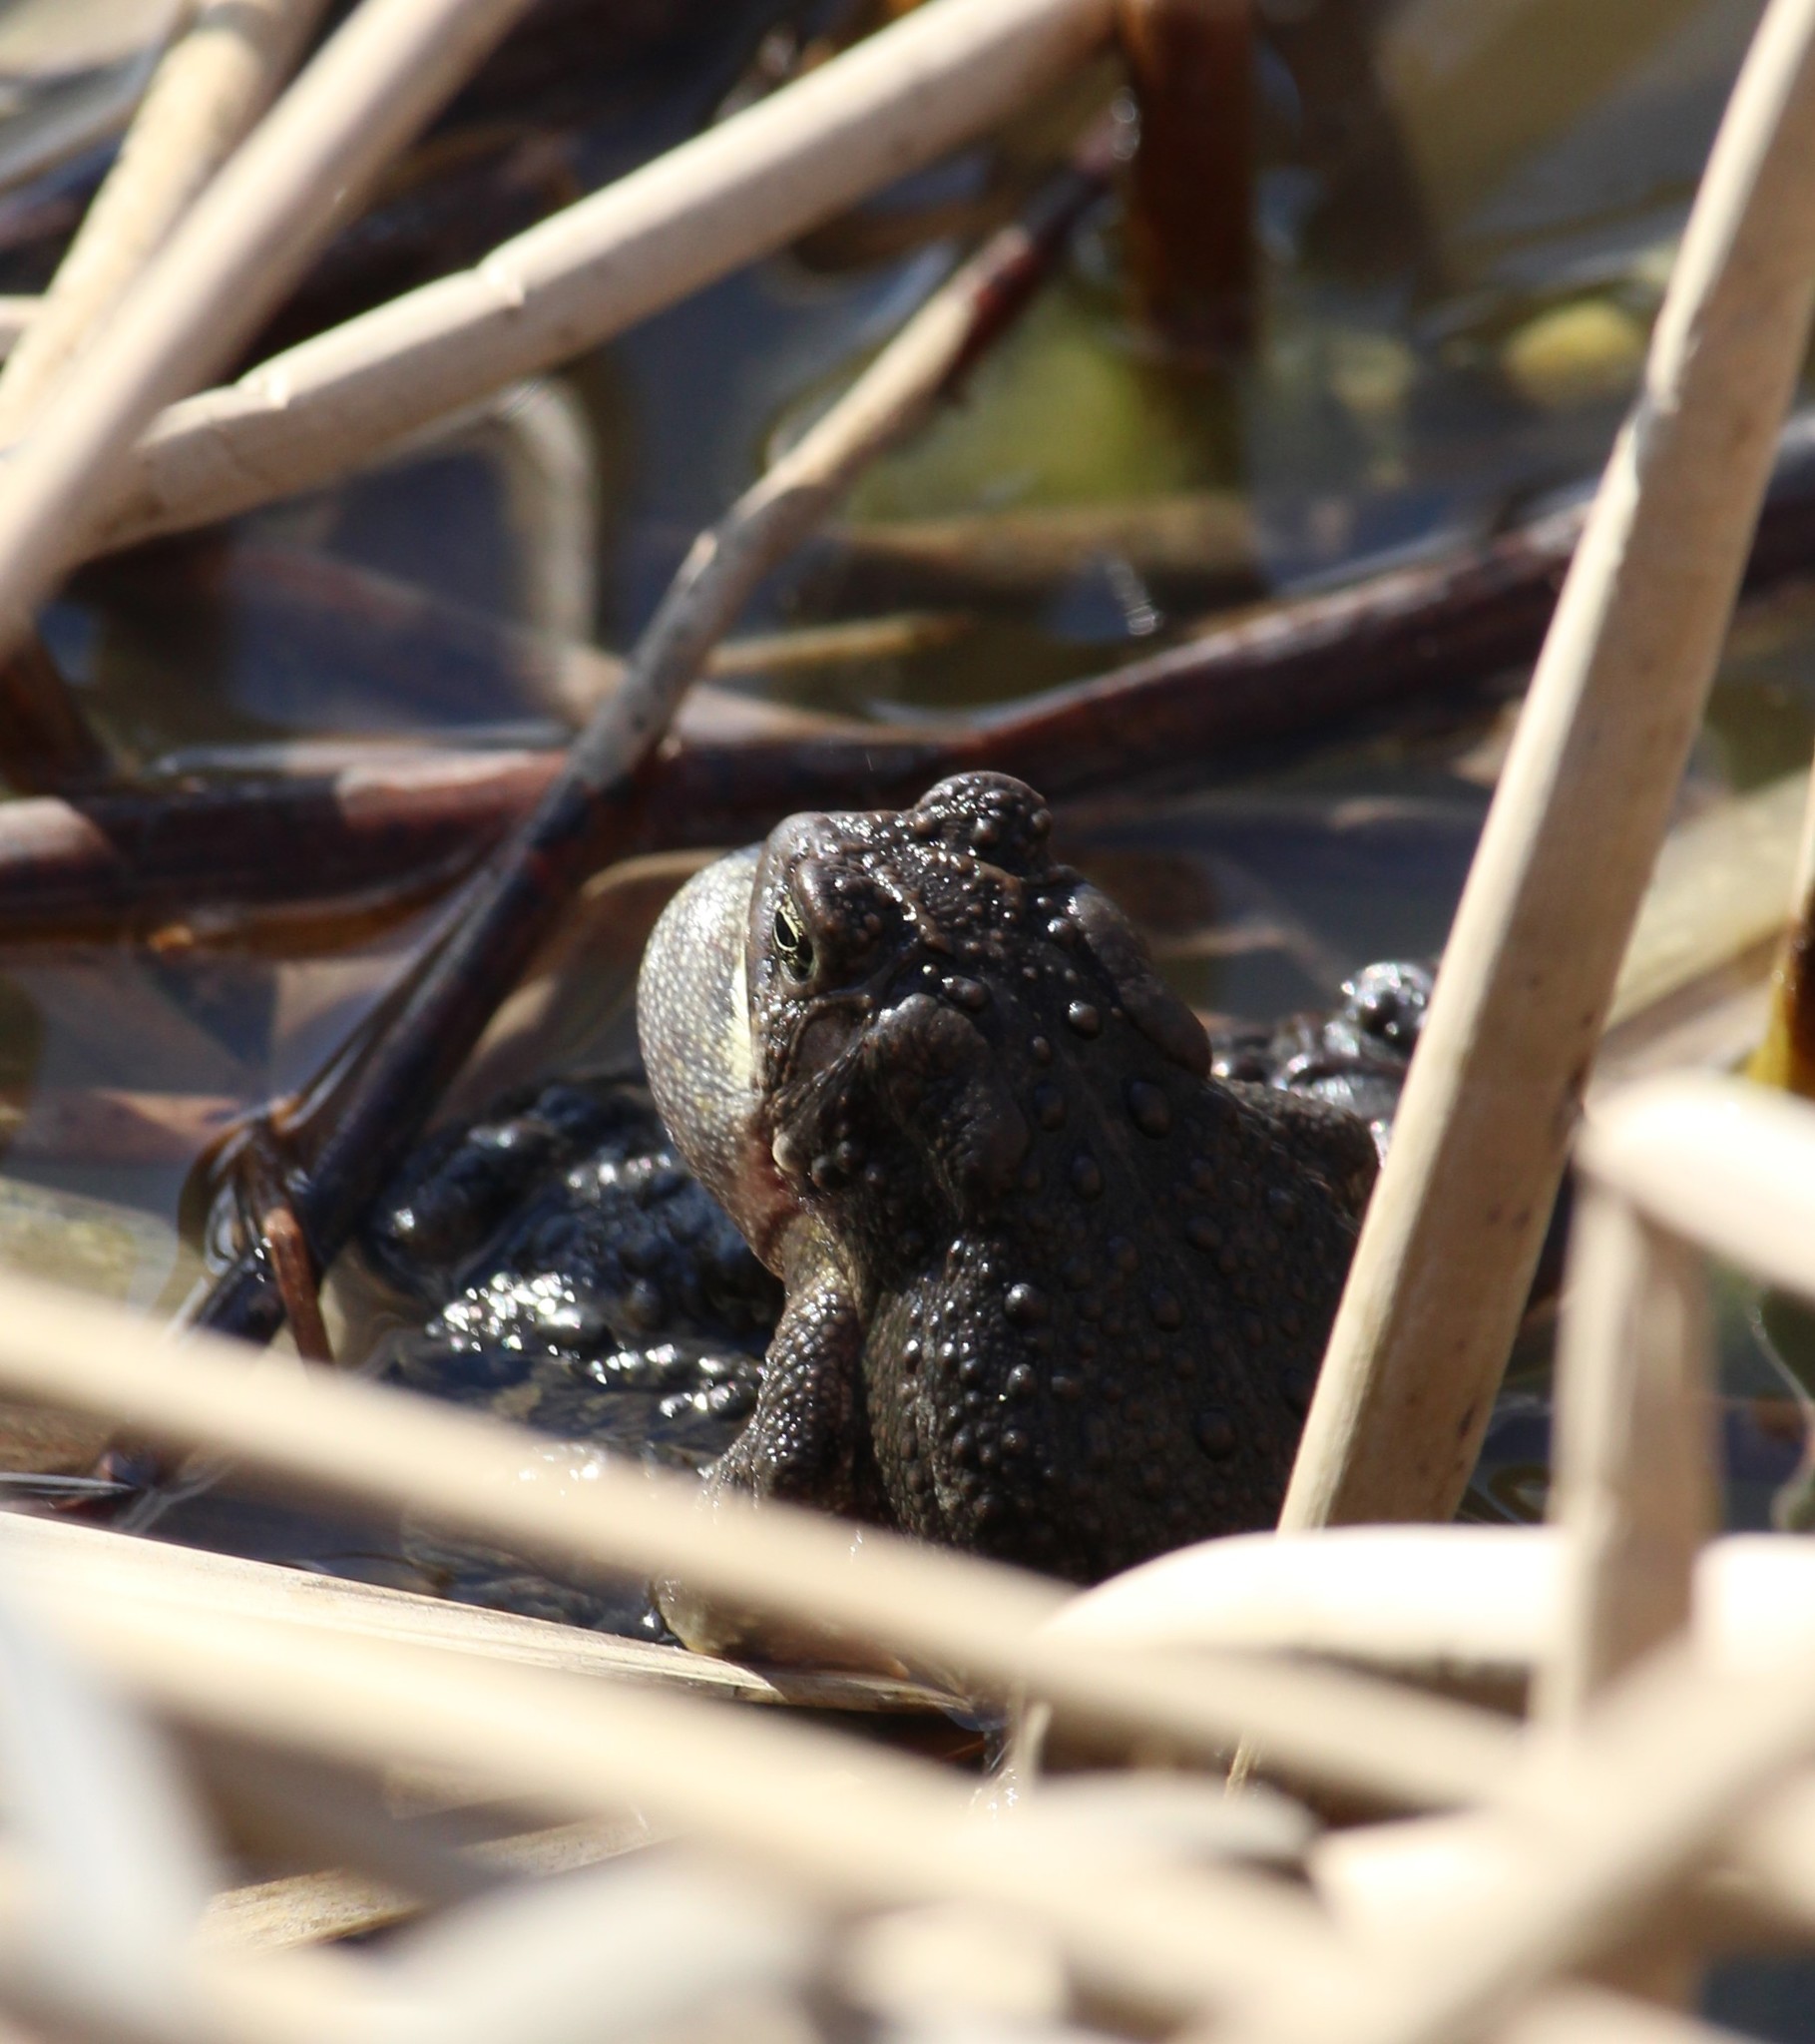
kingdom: Animalia
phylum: Chordata
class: Amphibia
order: Anura
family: Bufonidae
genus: Anaxyrus
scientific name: Anaxyrus americanus
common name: American toad
